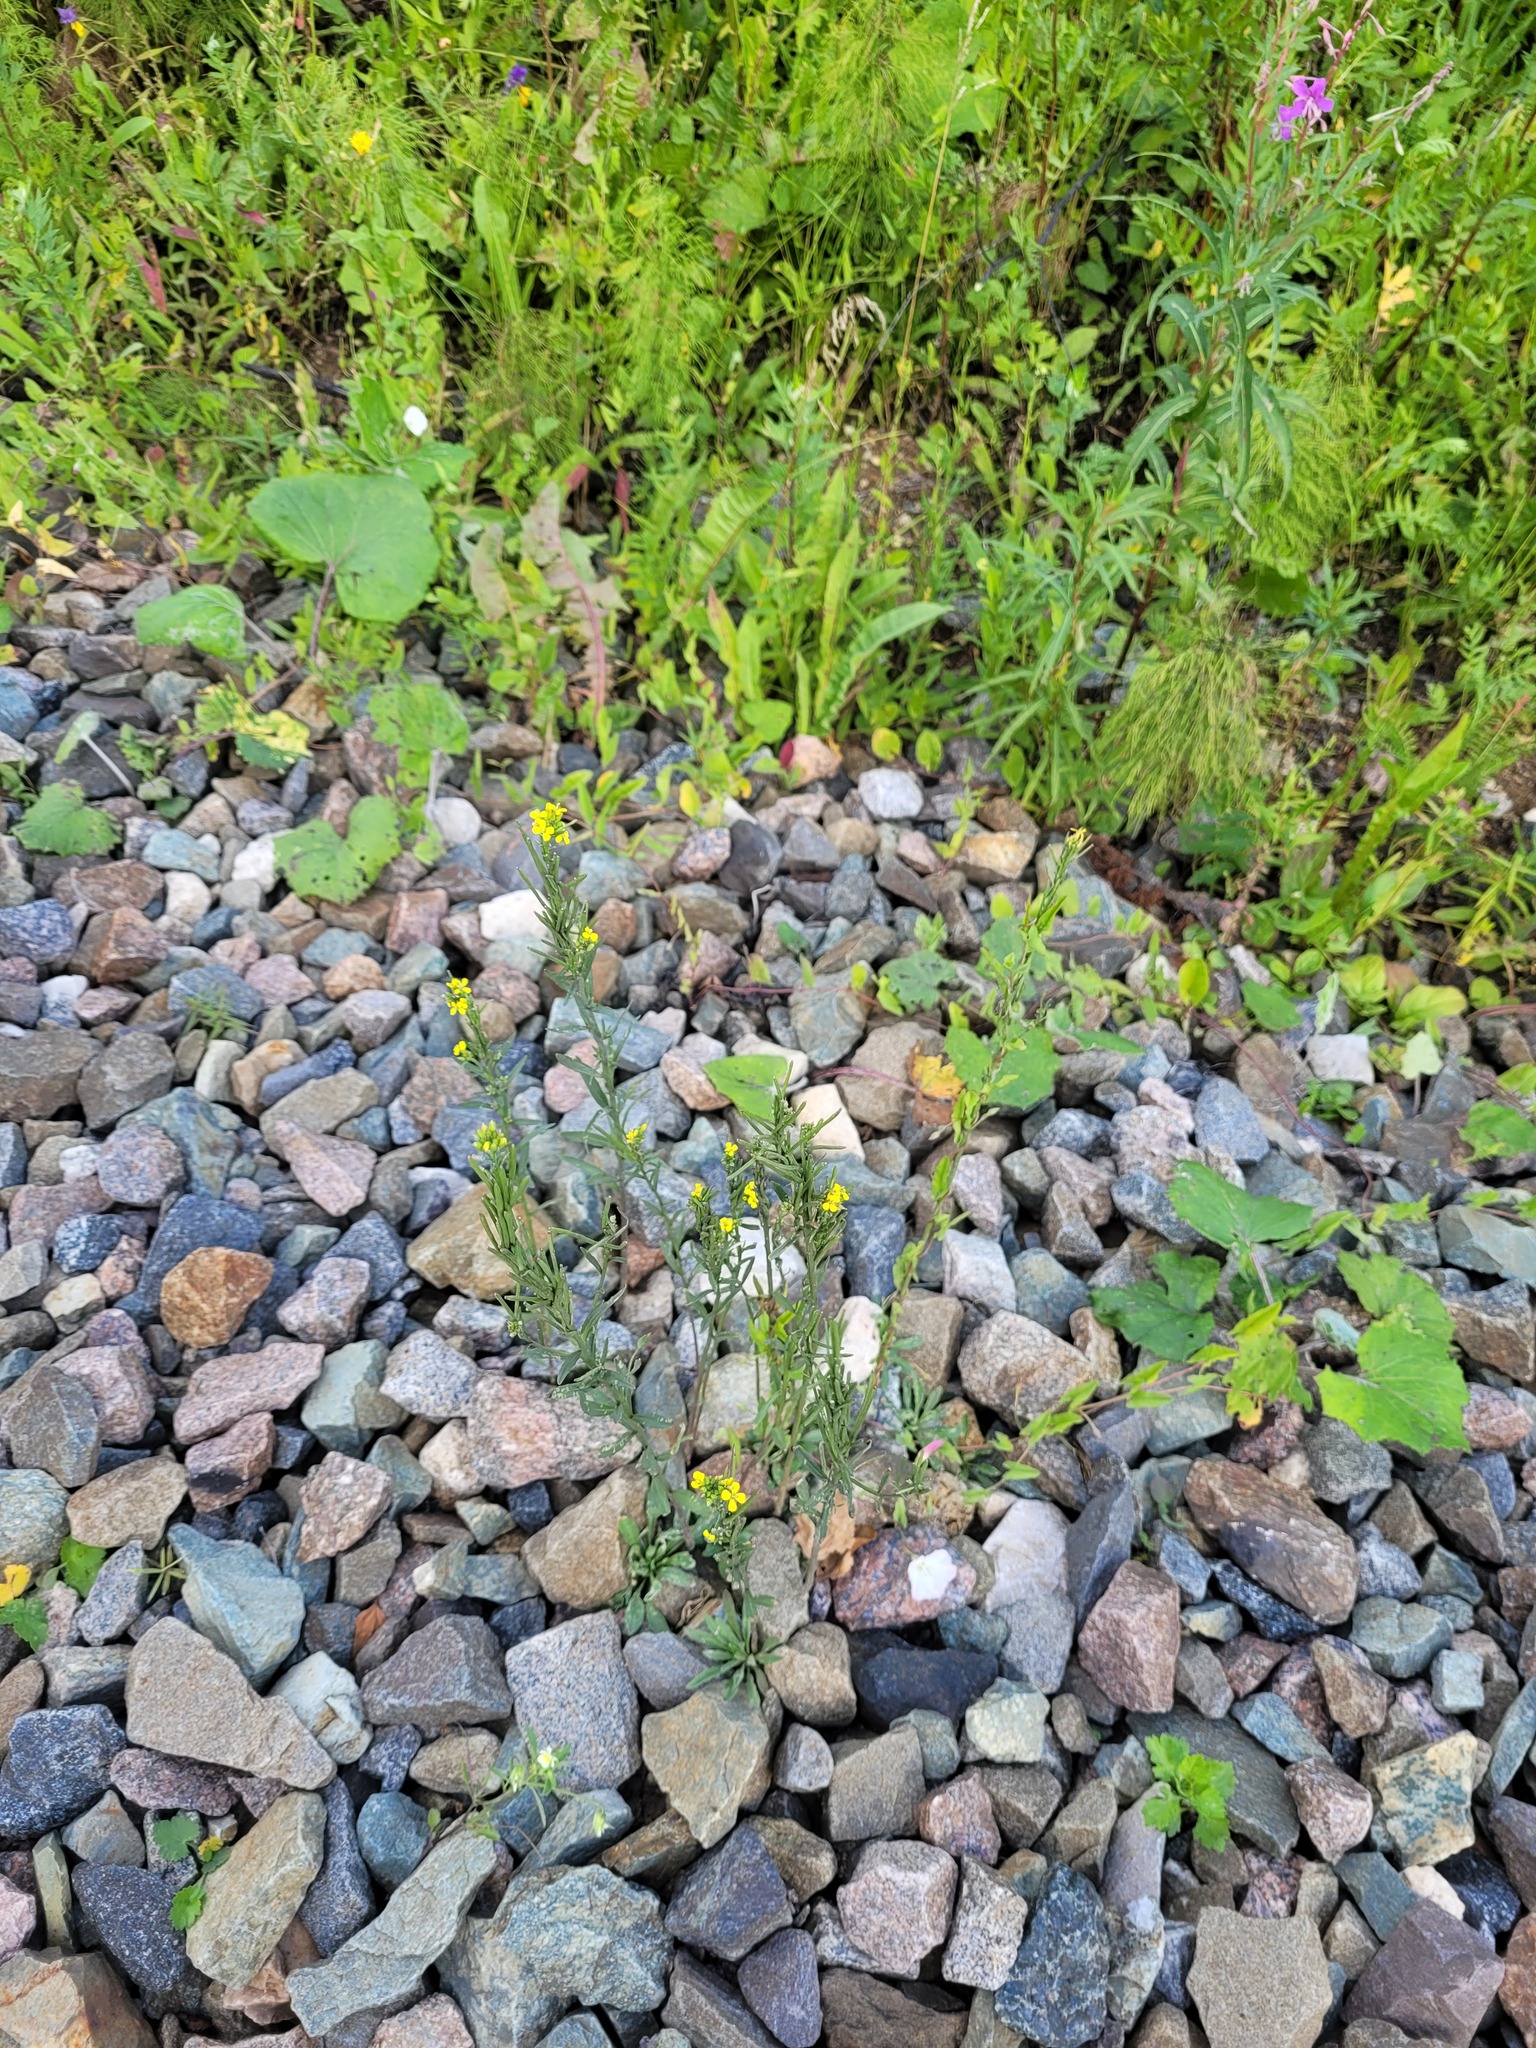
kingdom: Plantae
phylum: Tracheophyta
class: Magnoliopsida
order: Brassicales
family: Brassicaceae
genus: Erysimum
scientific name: Erysimum hieraciifolium
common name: European wallflower
